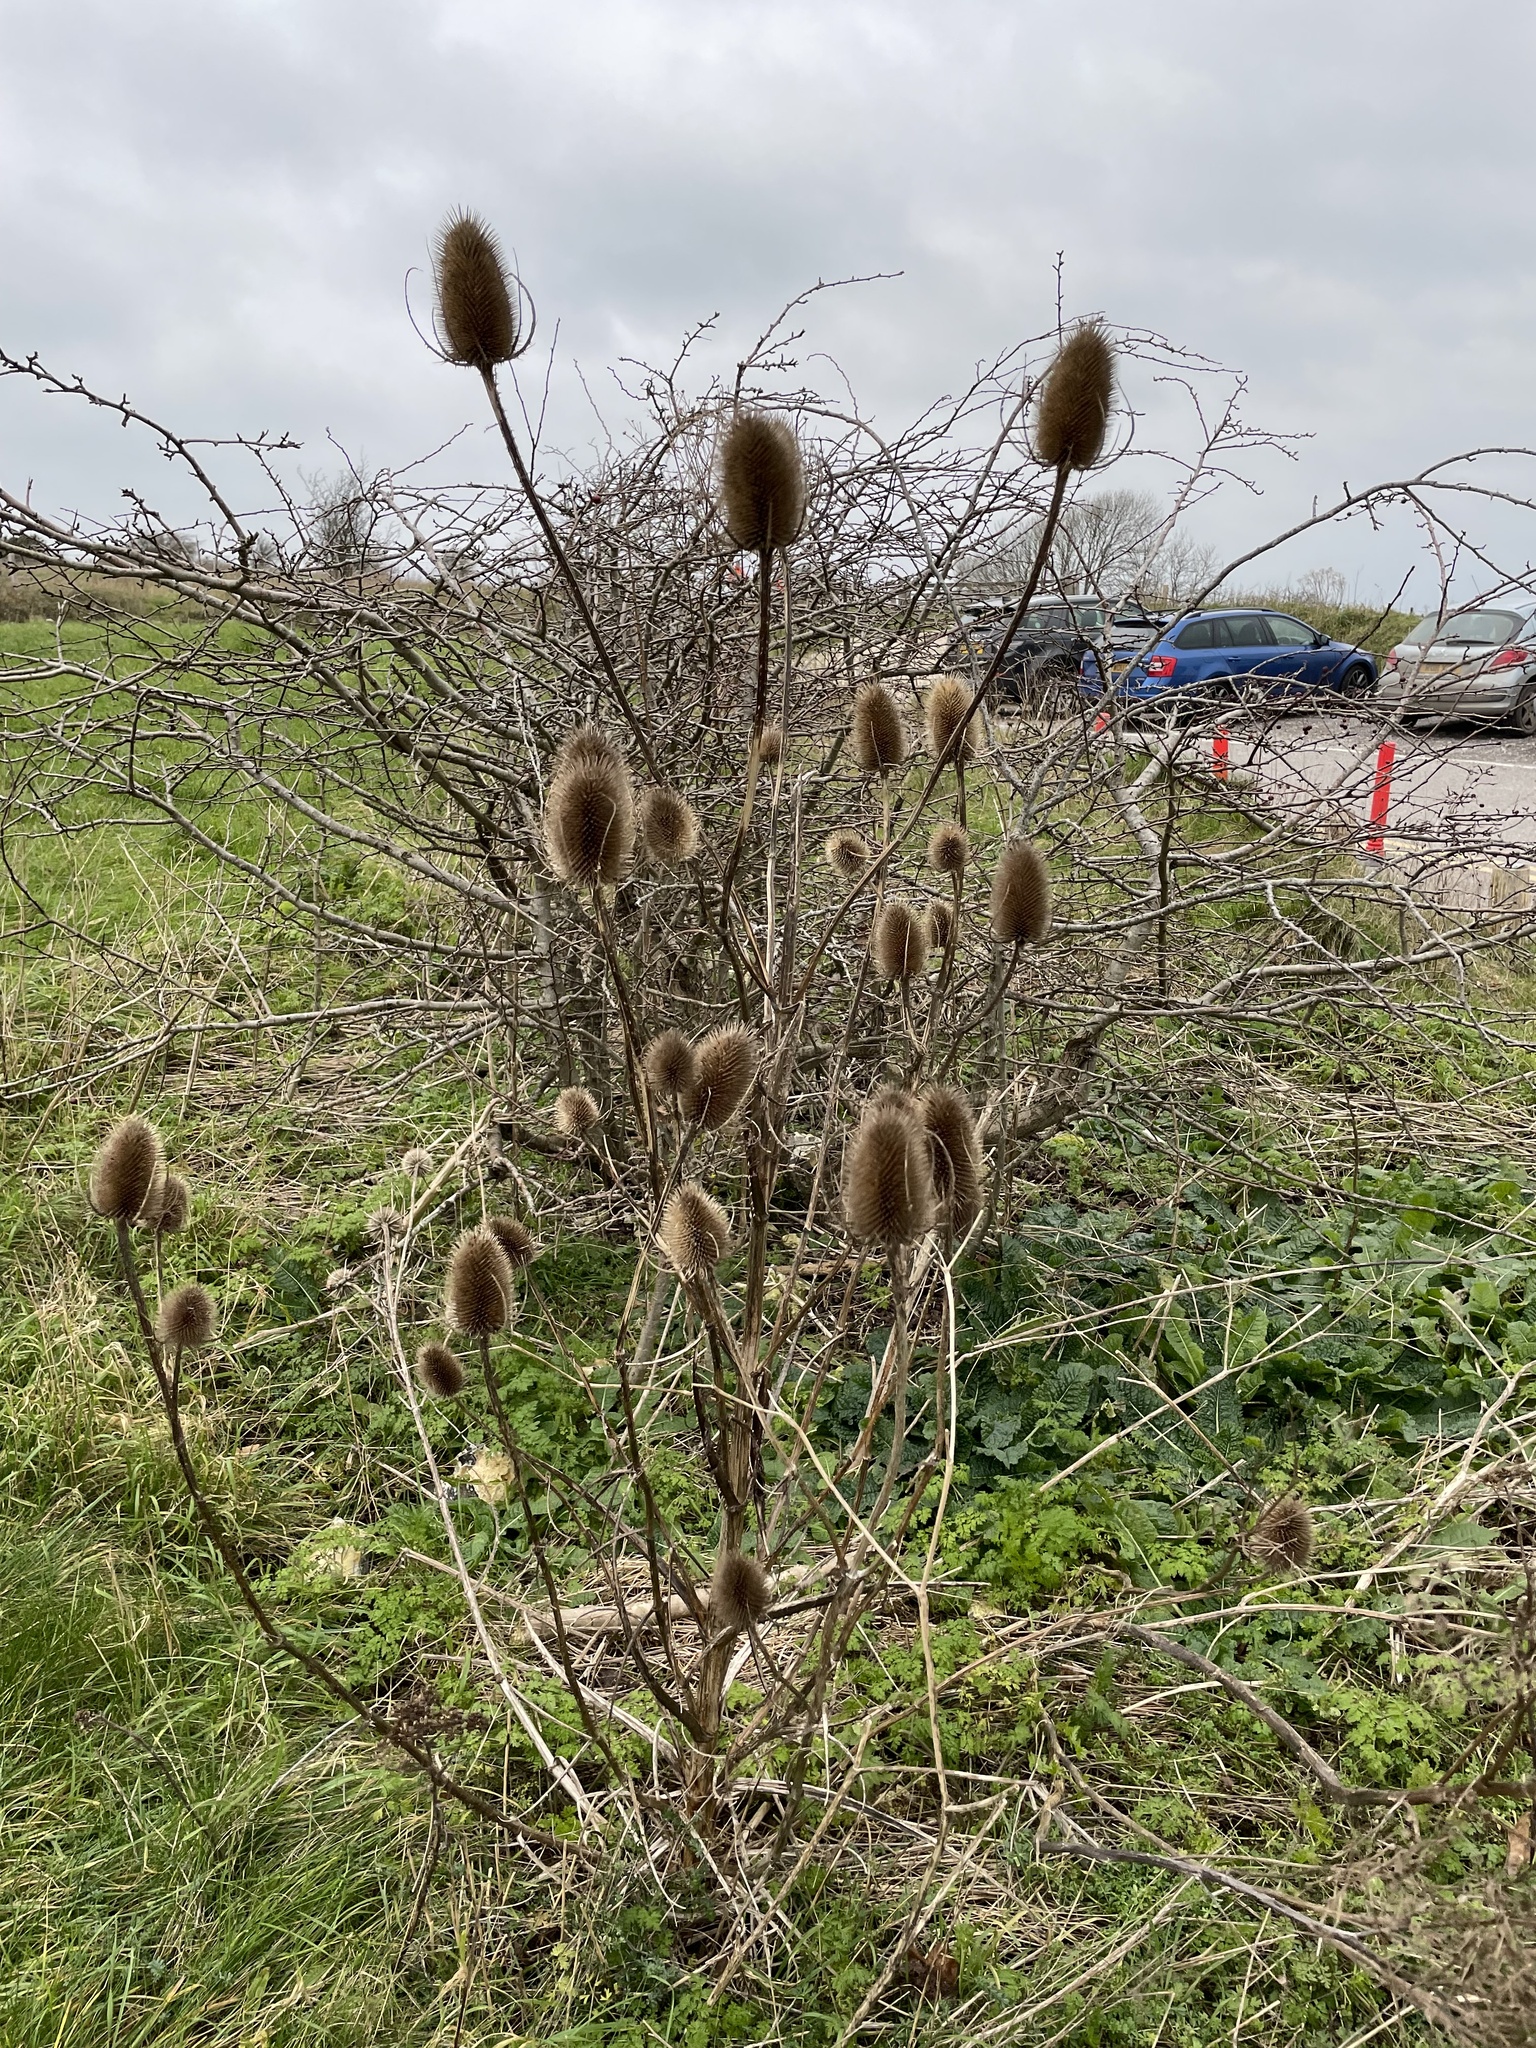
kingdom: Plantae
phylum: Tracheophyta
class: Magnoliopsida
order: Dipsacales
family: Caprifoliaceae
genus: Dipsacus
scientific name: Dipsacus fullonum
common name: Teasel
